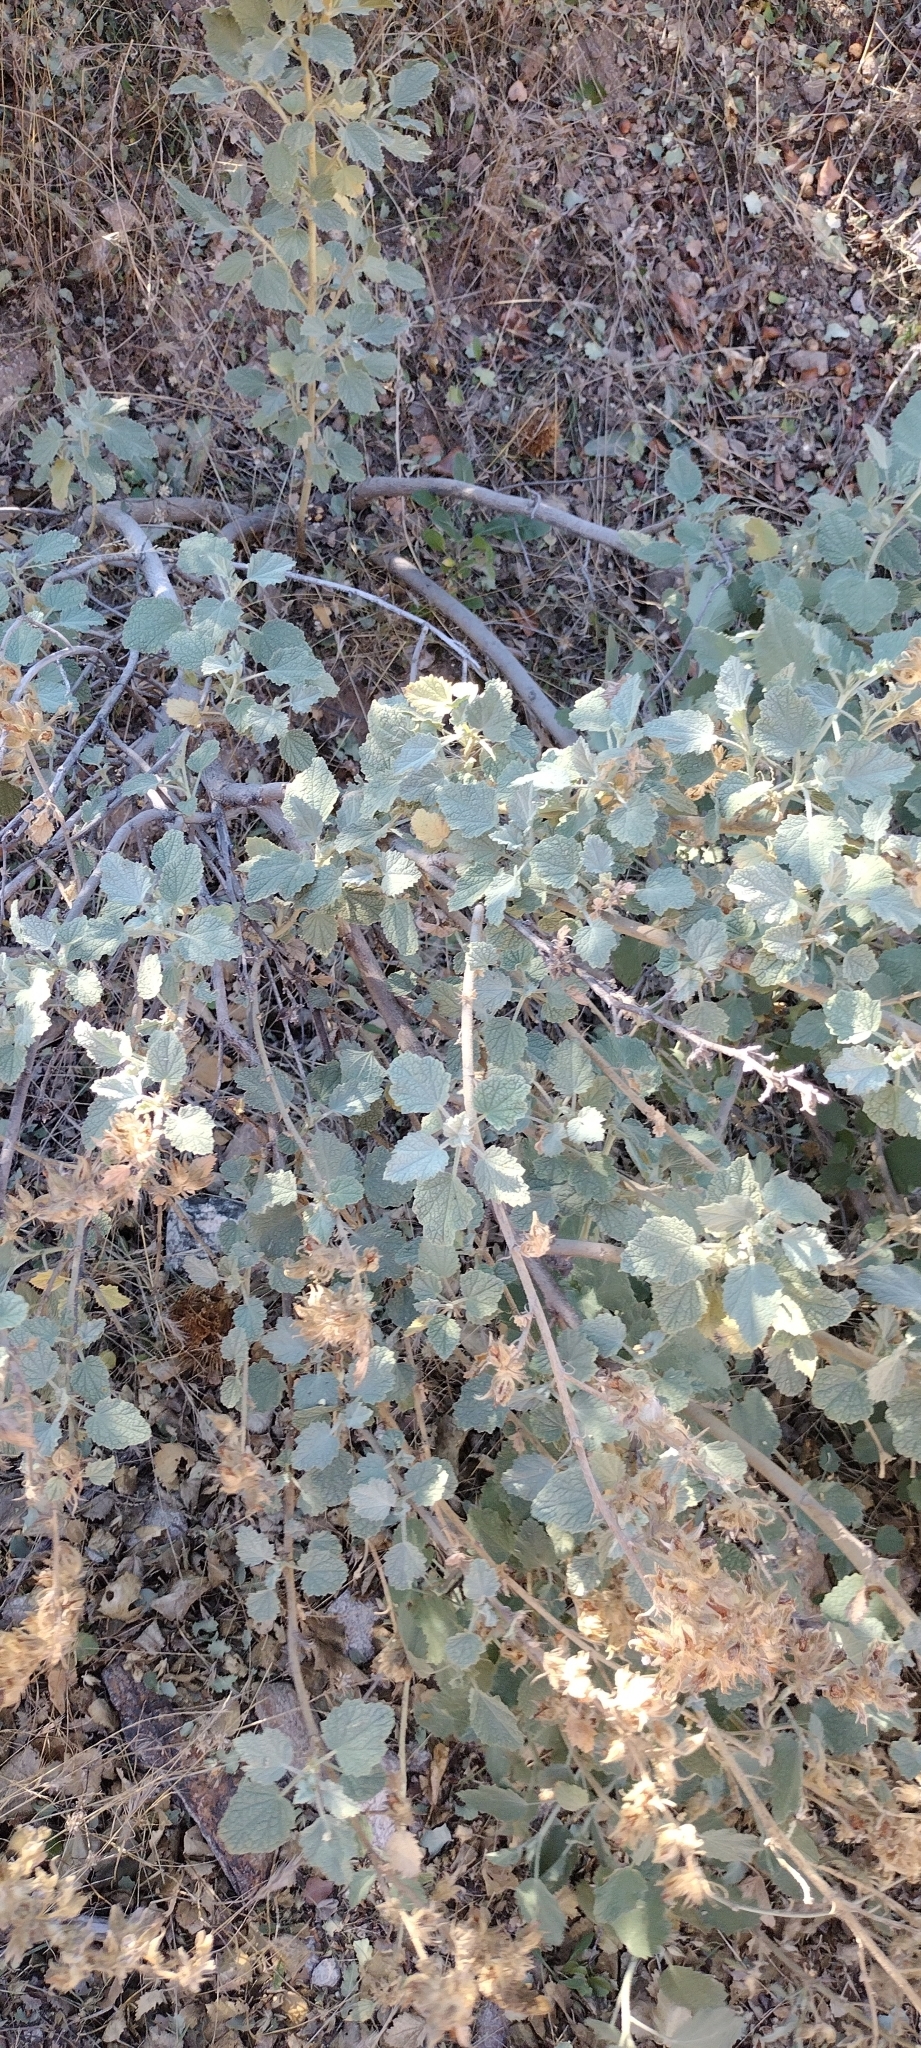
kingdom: Plantae
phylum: Tracheophyta
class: Magnoliopsida
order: Malvales
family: Malvaceae
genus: Malacothamnus
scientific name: Malacothamnus marrubioides
